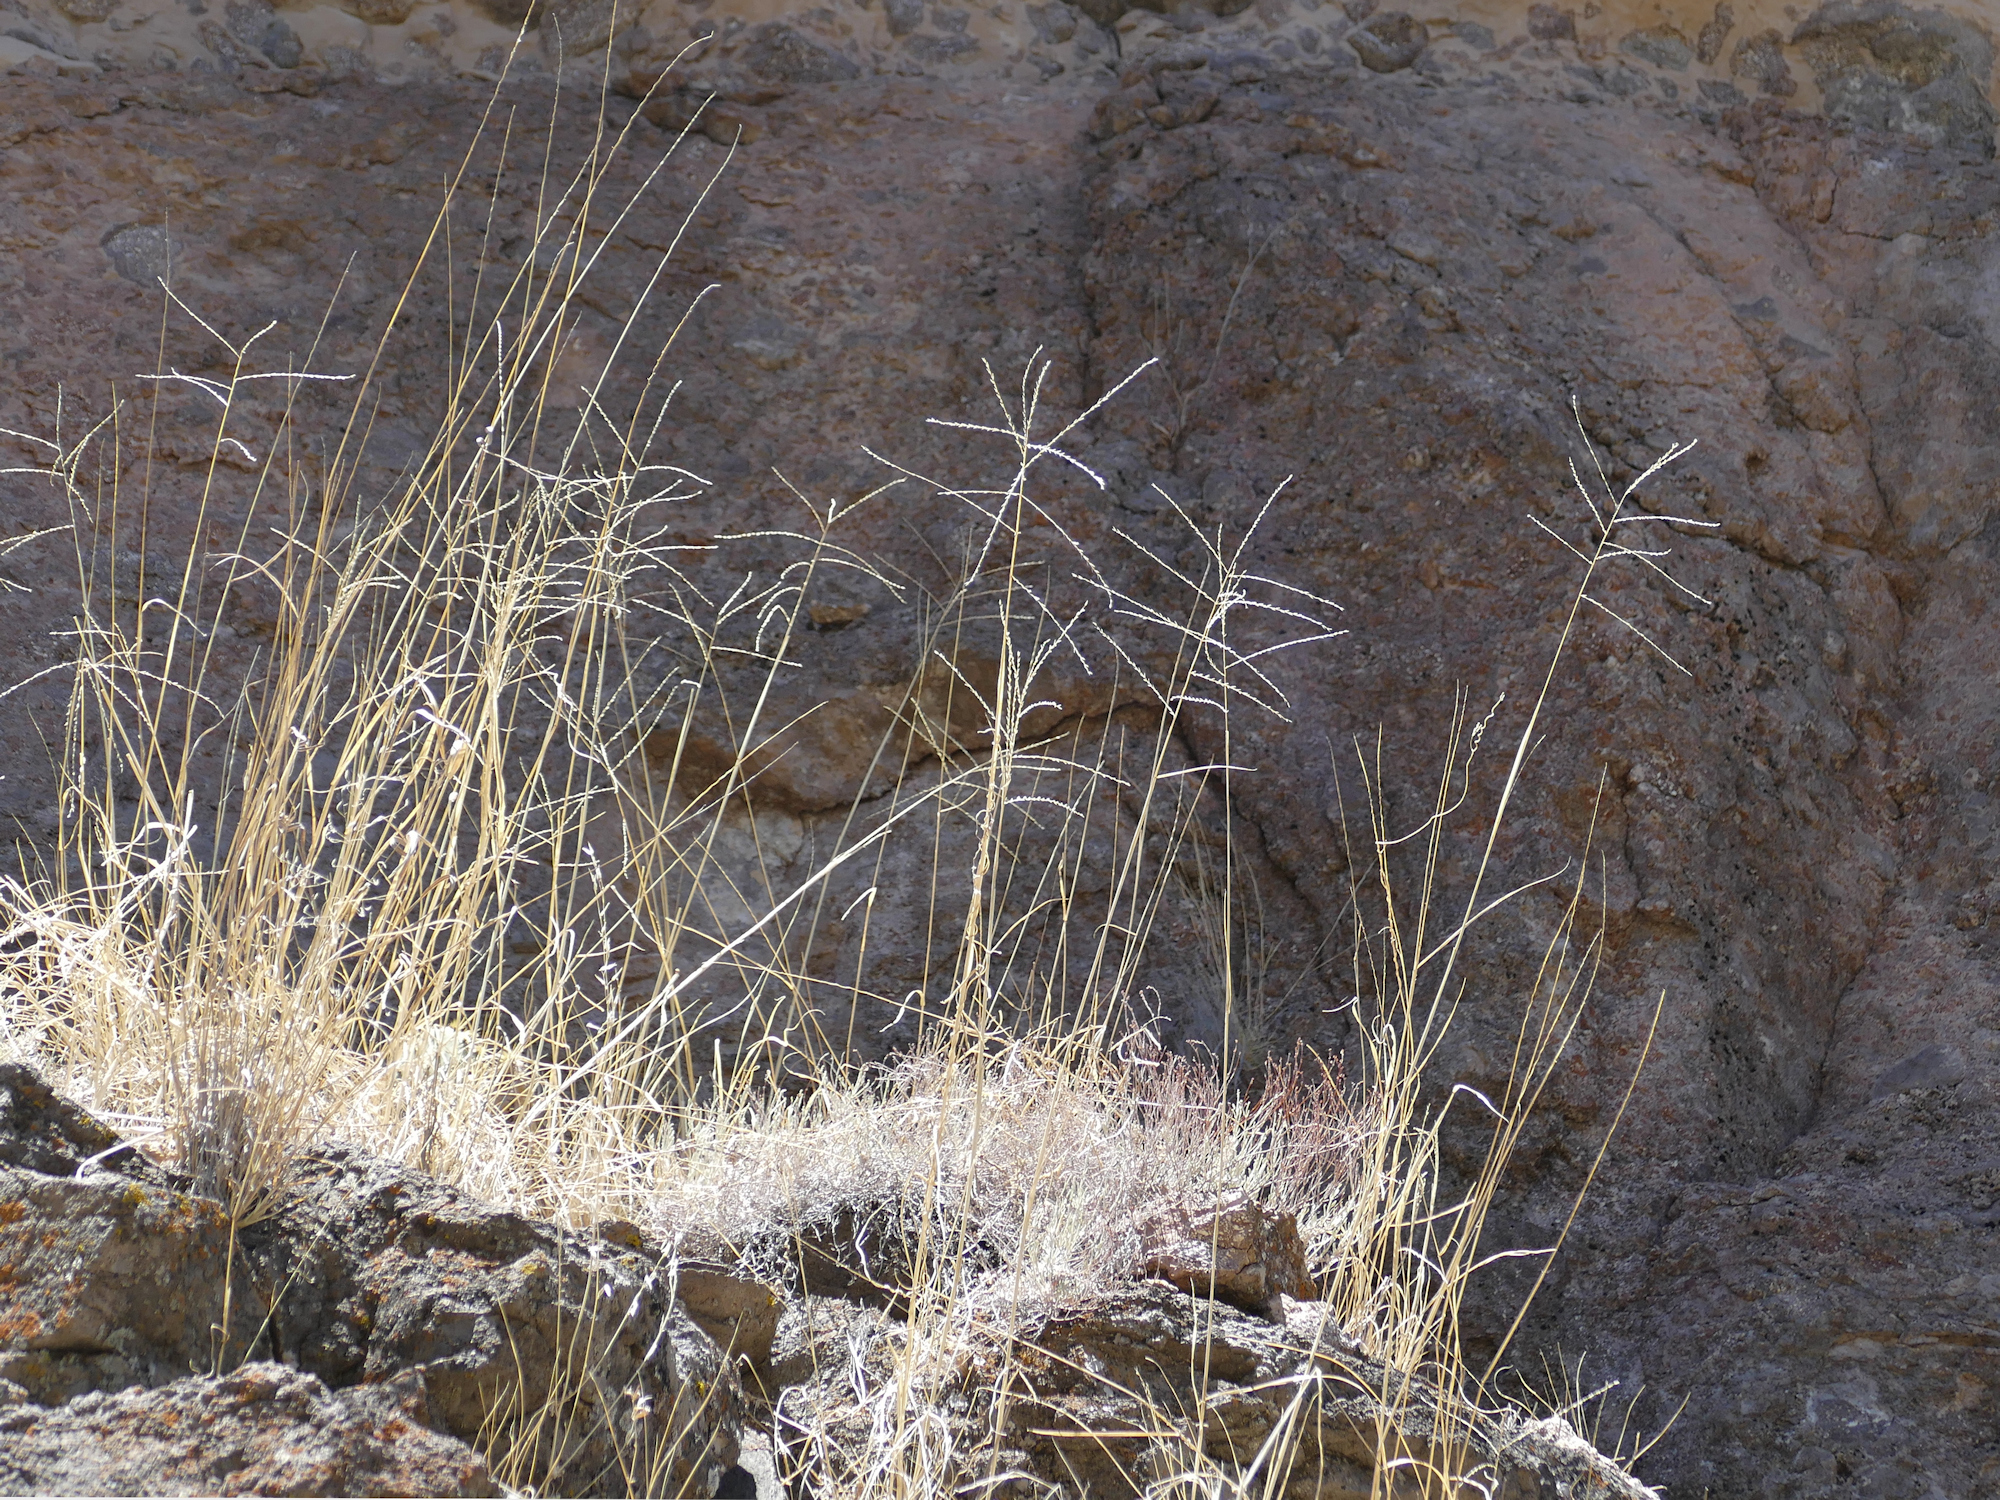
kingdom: Plantae
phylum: Tracheophyta
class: Liliopsida
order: Poales
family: Poaceae
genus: Disakisperma
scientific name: Disakisperma dubium
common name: Green sprangletop
